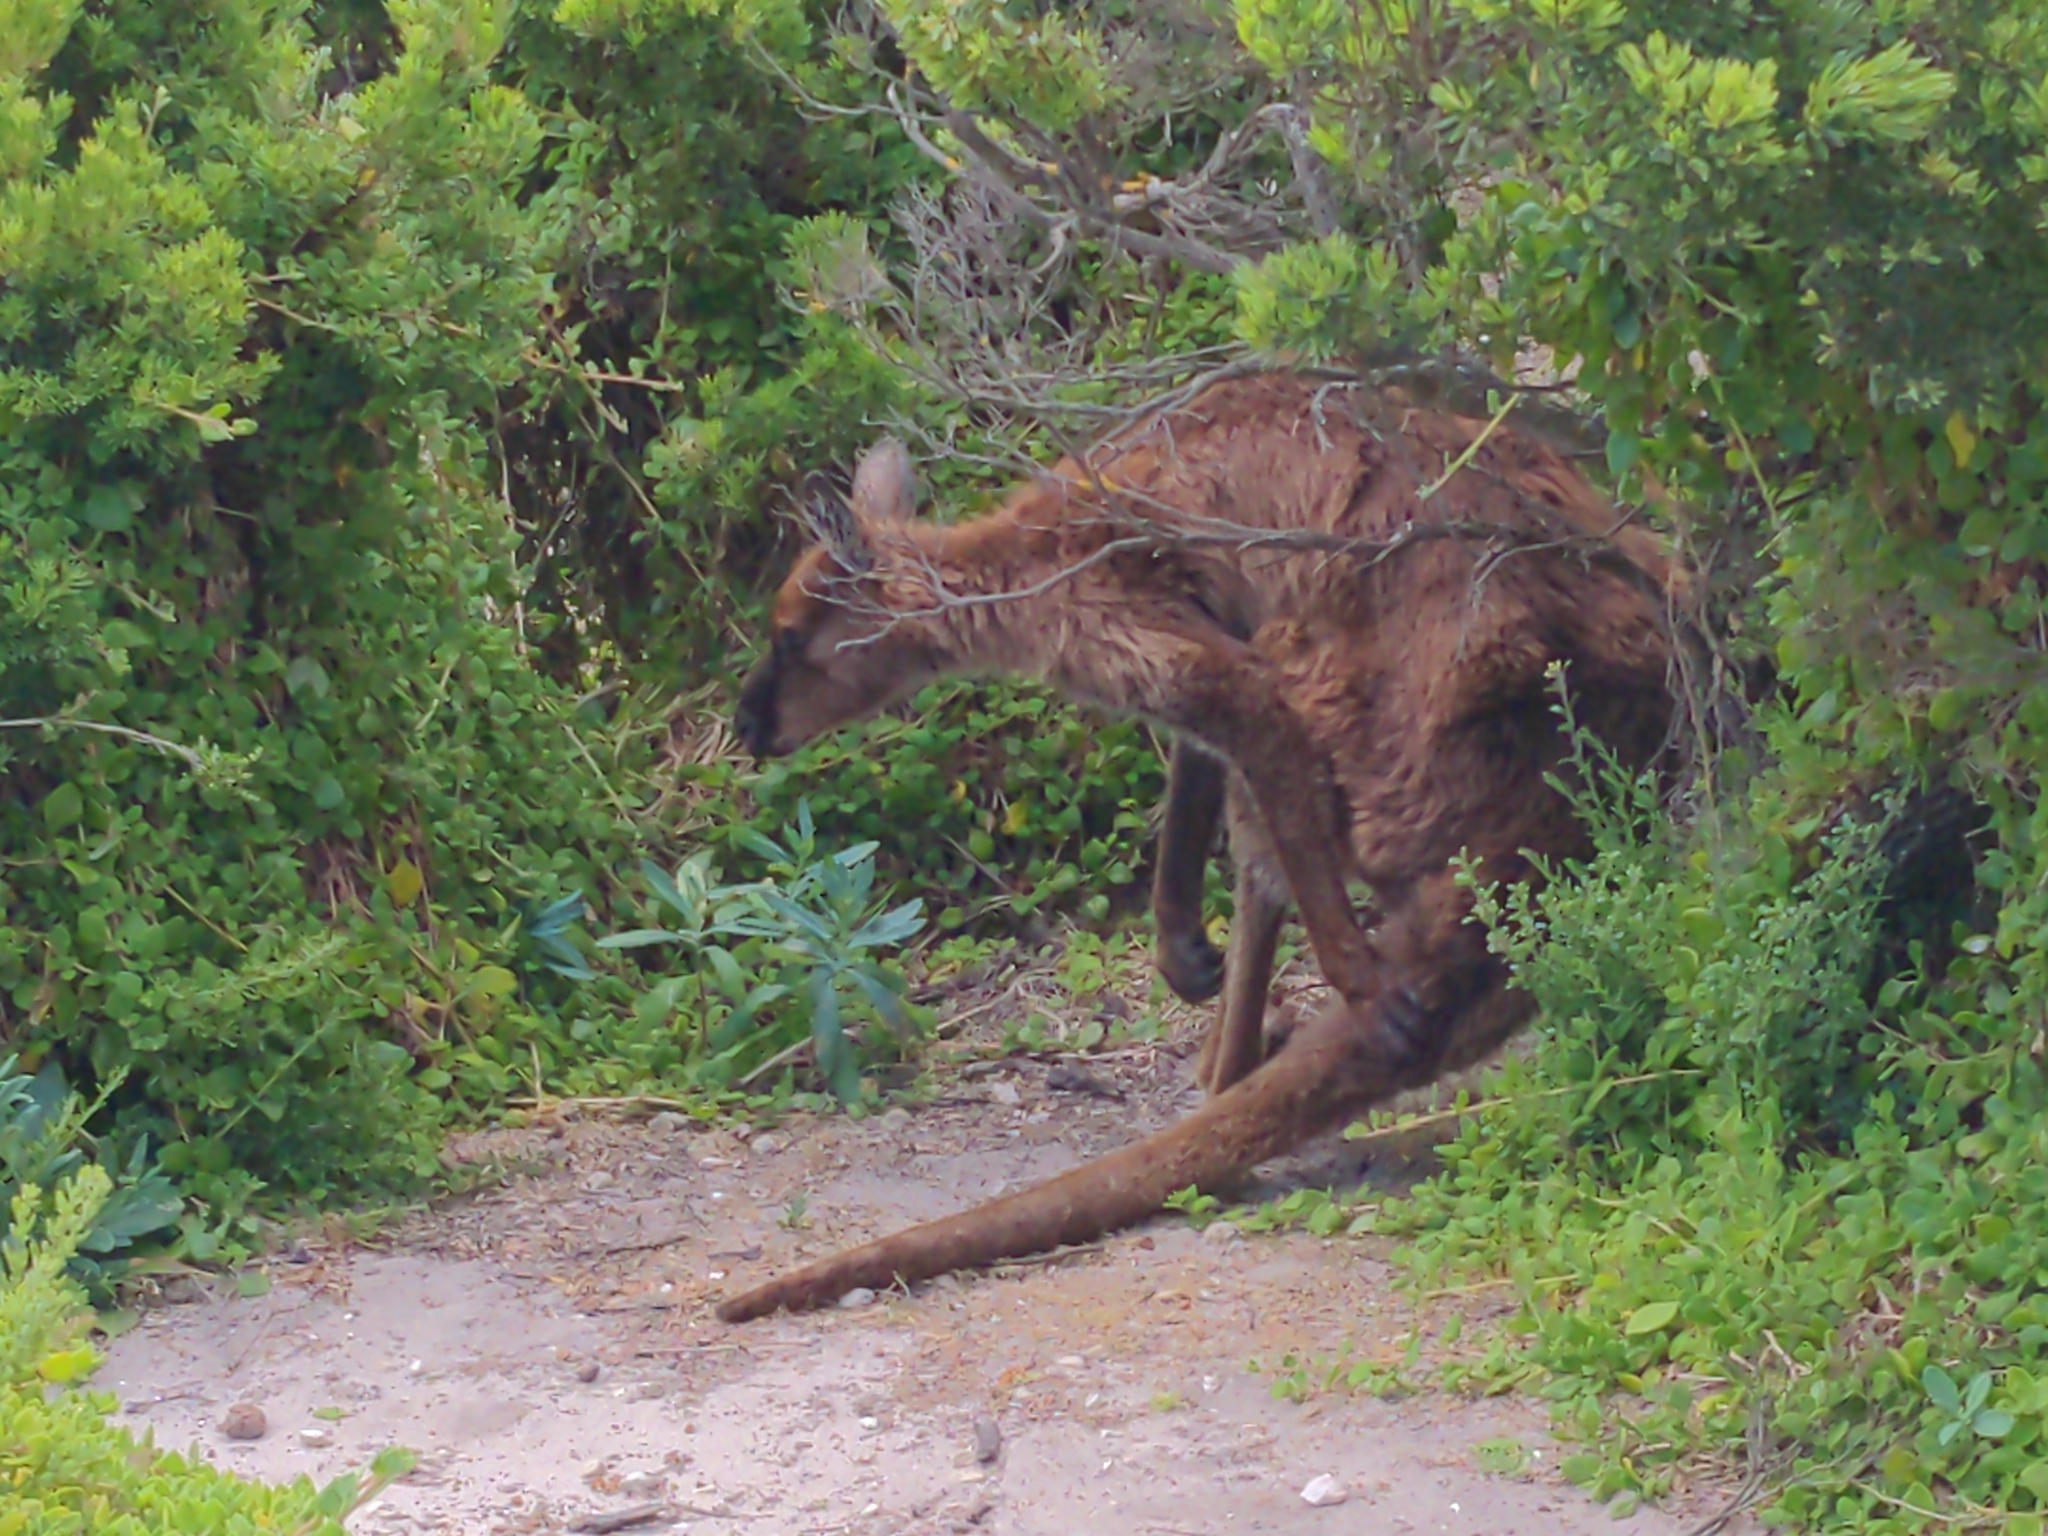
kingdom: Animalia
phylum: Chordata
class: Mammalia
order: Diprotodontia
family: Macropodidae
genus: Macropus
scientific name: Macropus fuliginosus
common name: Western grey kangaroo
